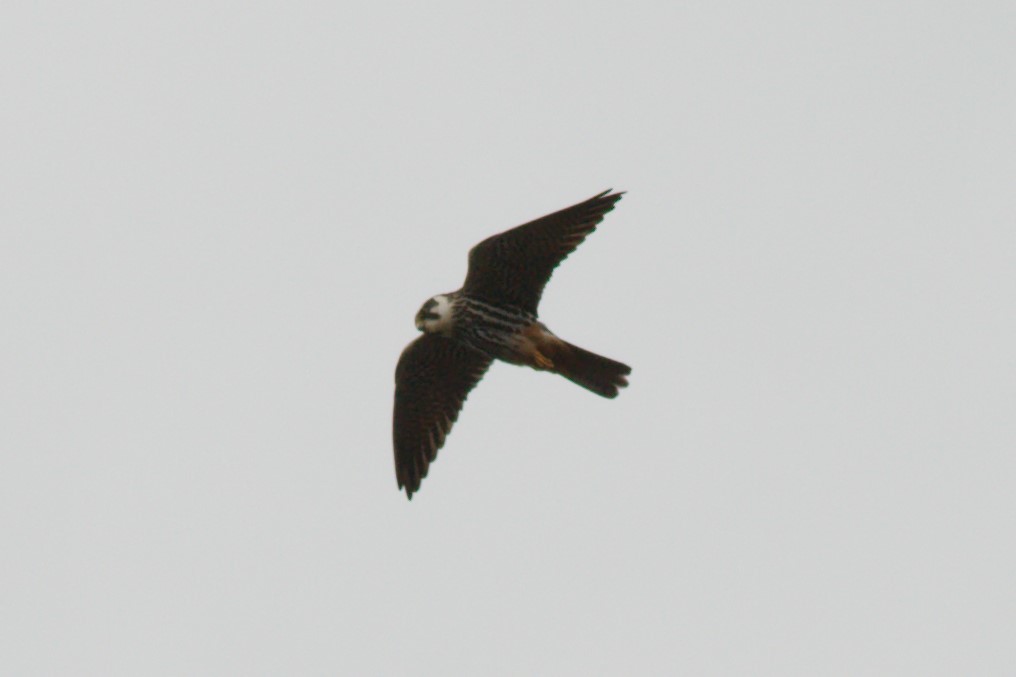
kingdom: Animalia
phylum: Chordata
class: Aves
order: Falconiformes
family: Falconidae
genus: Falco
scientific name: Falco subbuteo
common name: Eurasian hobby
